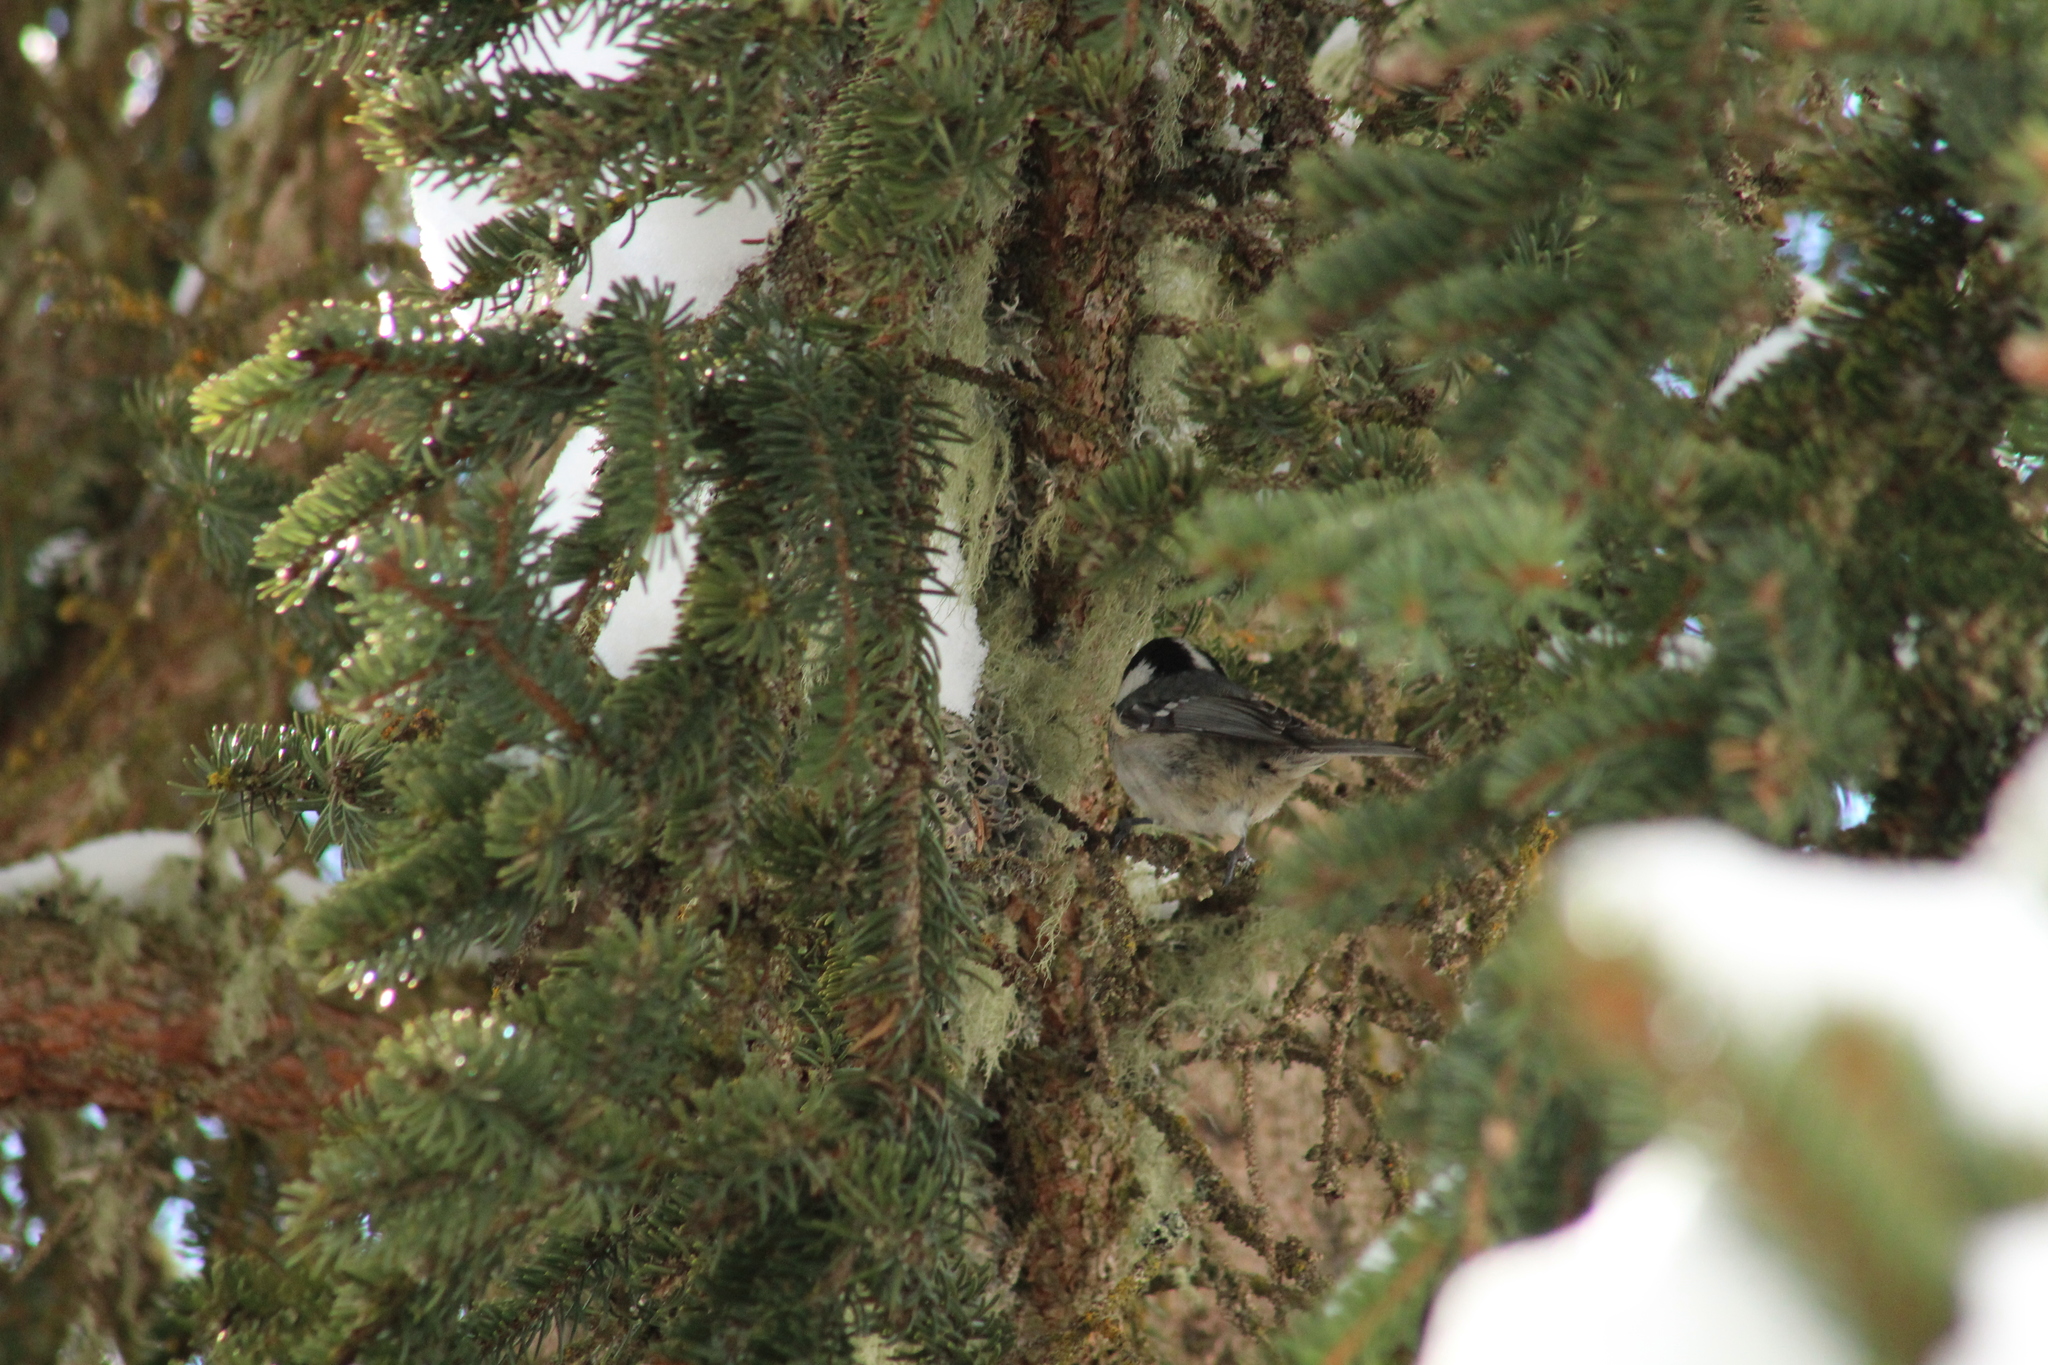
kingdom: Animalia
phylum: Chordata
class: Aves
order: Passeriformes
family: Paridae
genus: Periparus
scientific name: Periparus ater
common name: Coal tit
